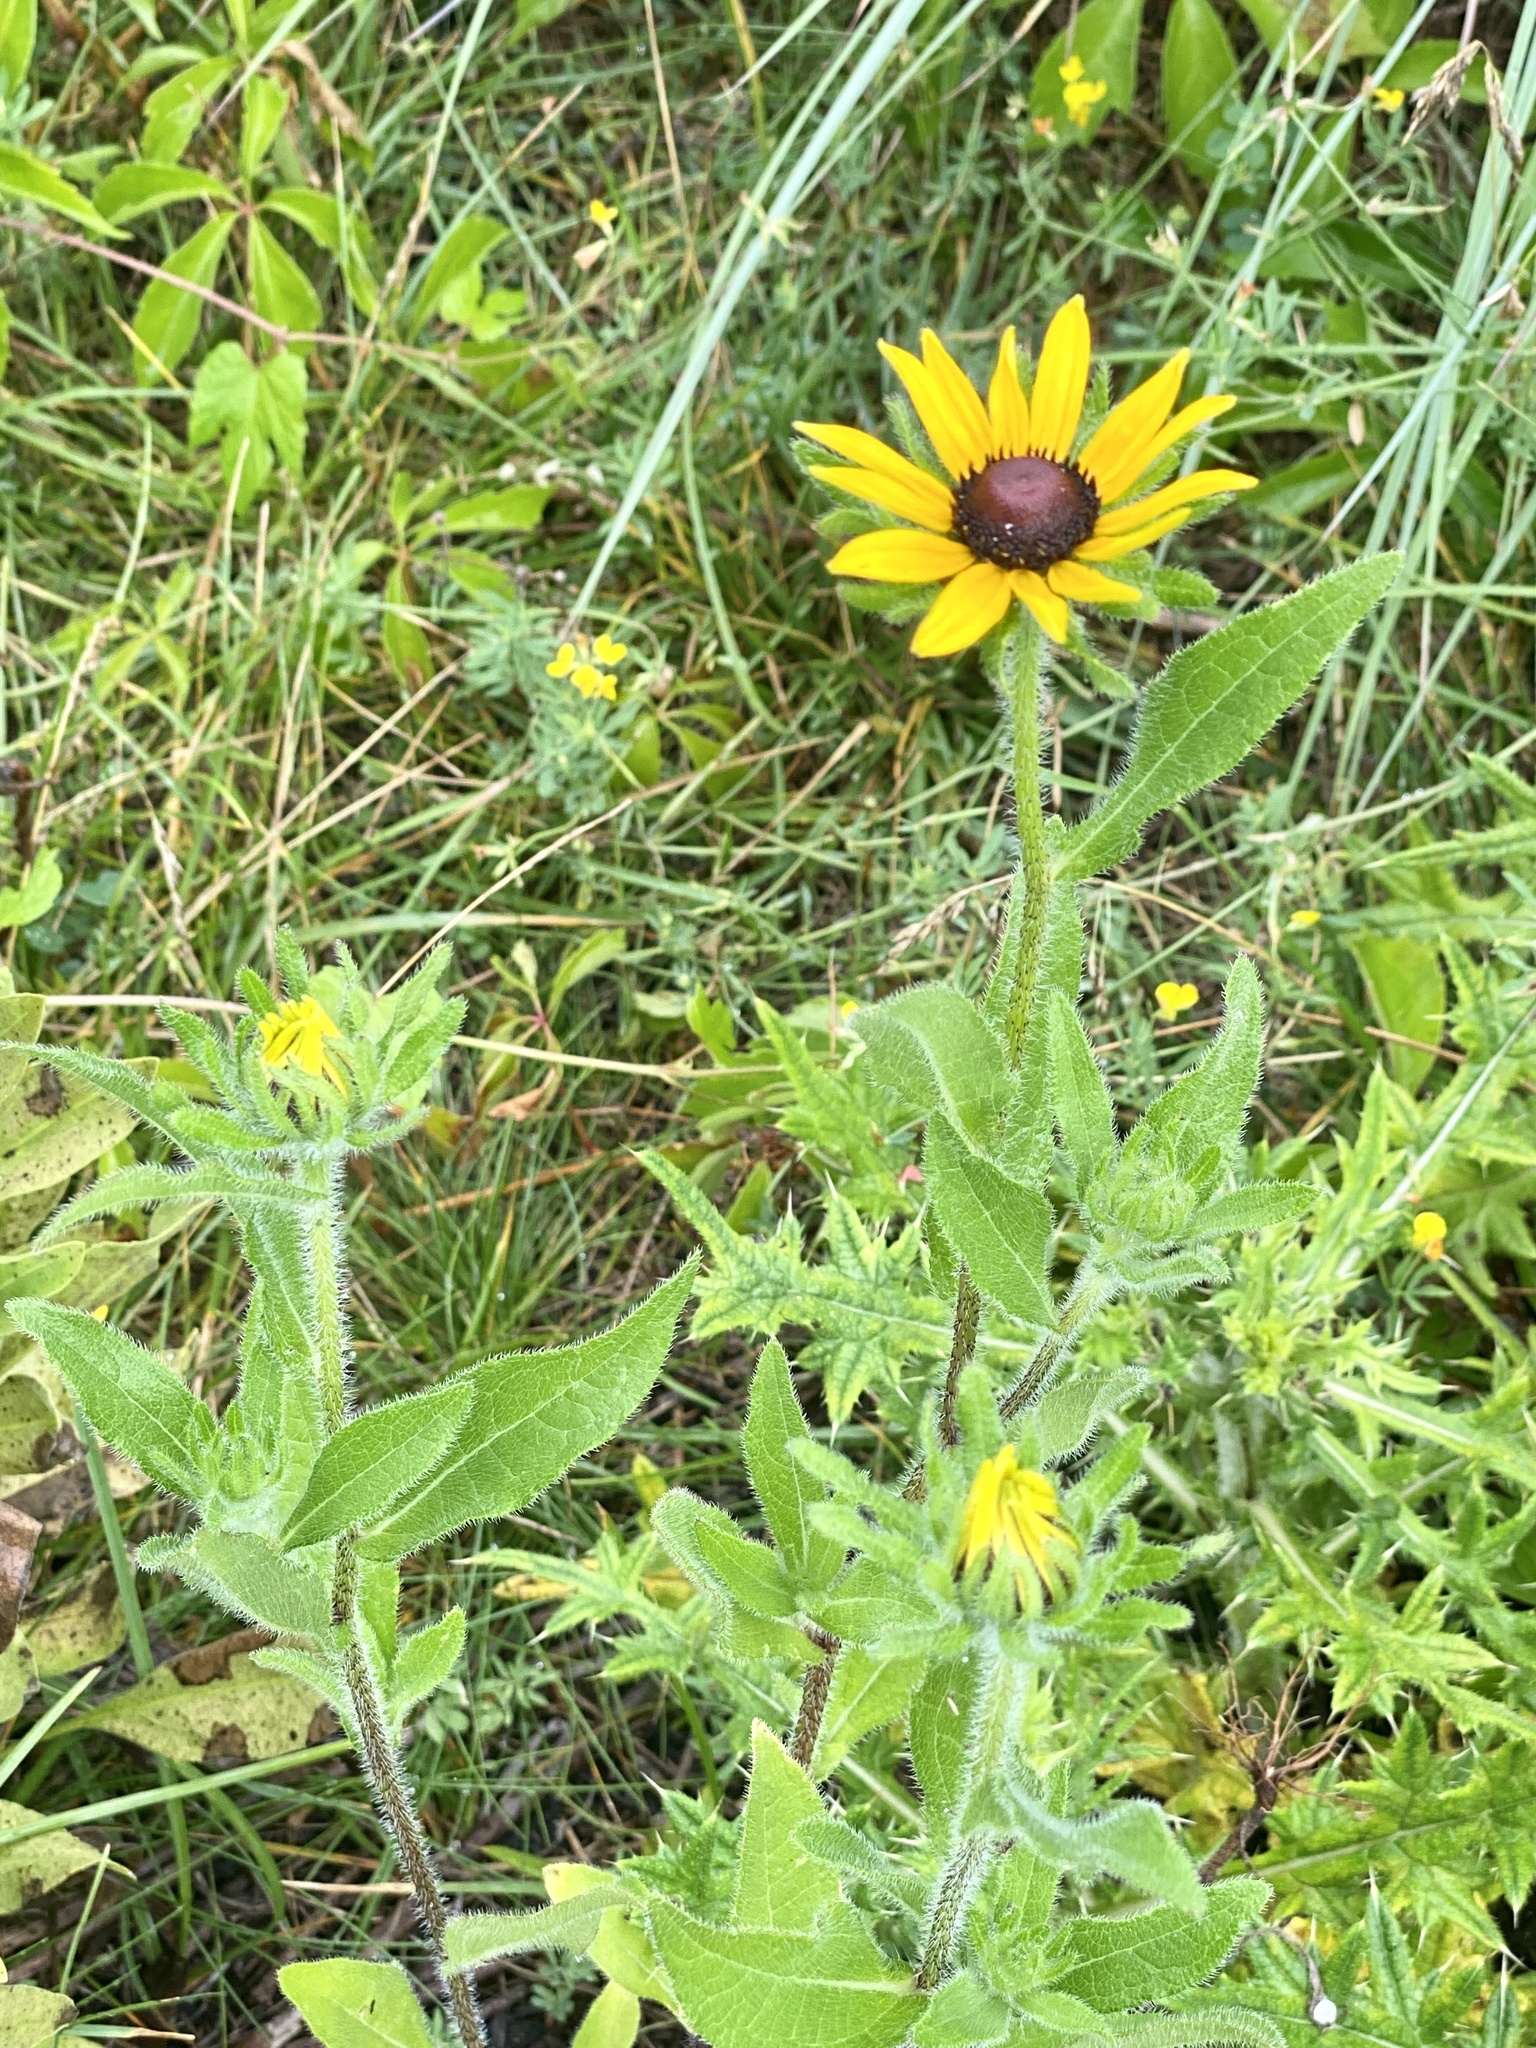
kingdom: Plantae
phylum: Tracheophyta
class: Magnoliopsida
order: Asterales
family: Asteraceae
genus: Rudbeckia
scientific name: Rudbeckia hirta
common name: Black-eyed-susan
